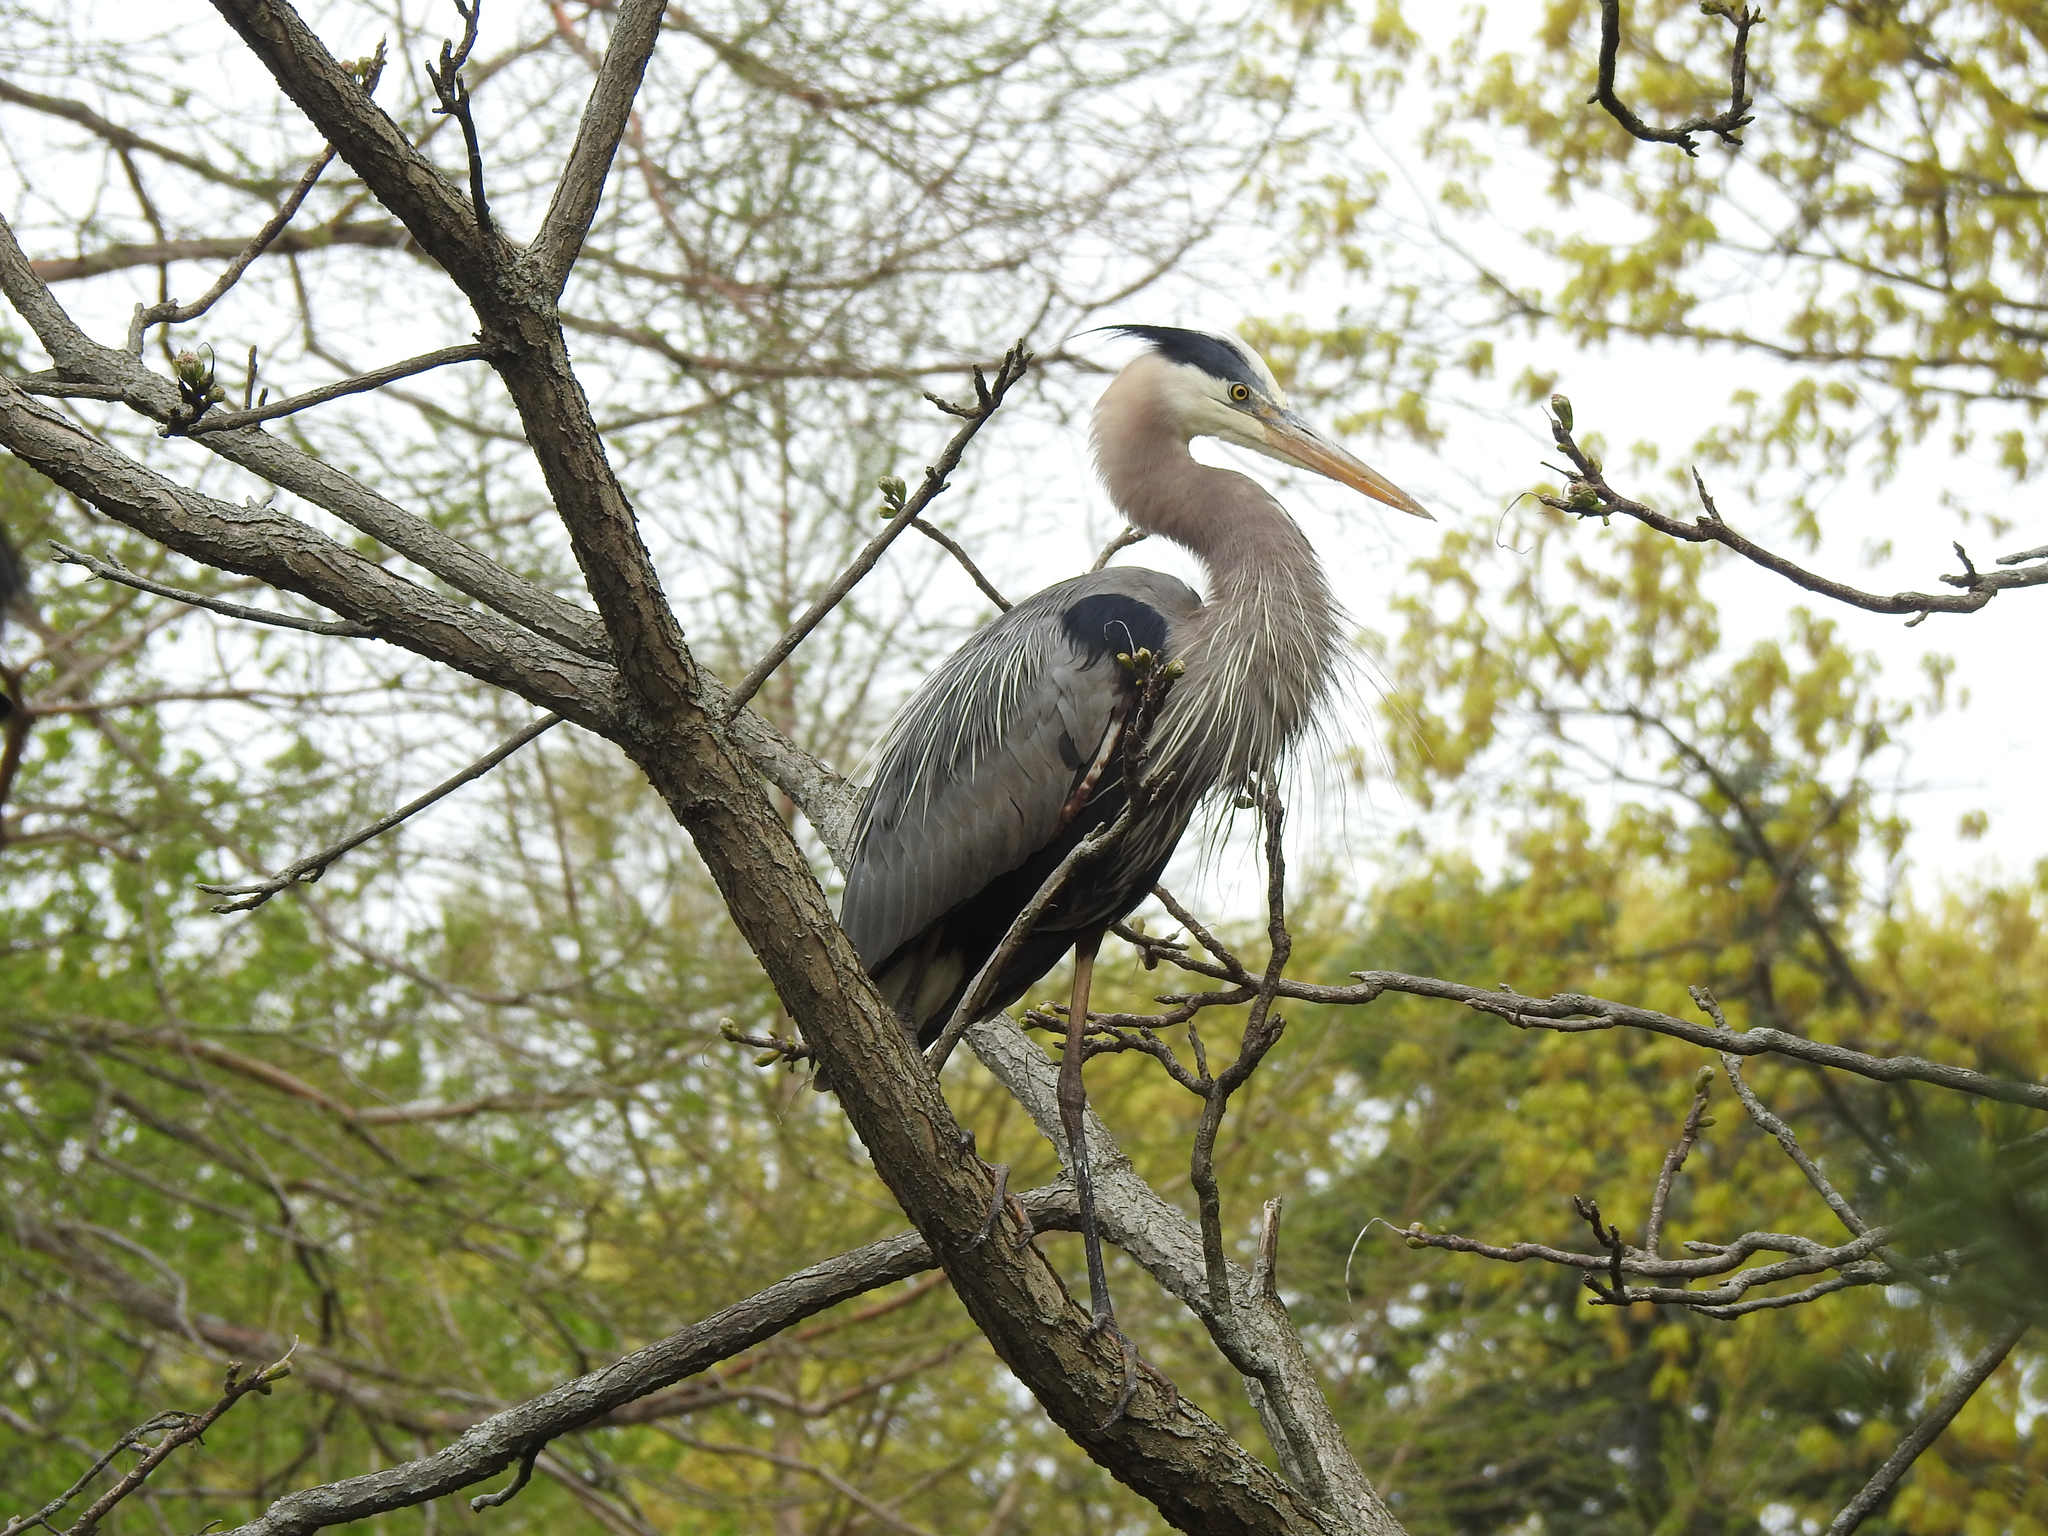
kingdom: Animalia
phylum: Chordata
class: Aves
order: Pelecaniformes
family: Ardeidae
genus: Ardea
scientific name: Ardea herodias
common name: Great blue heron
